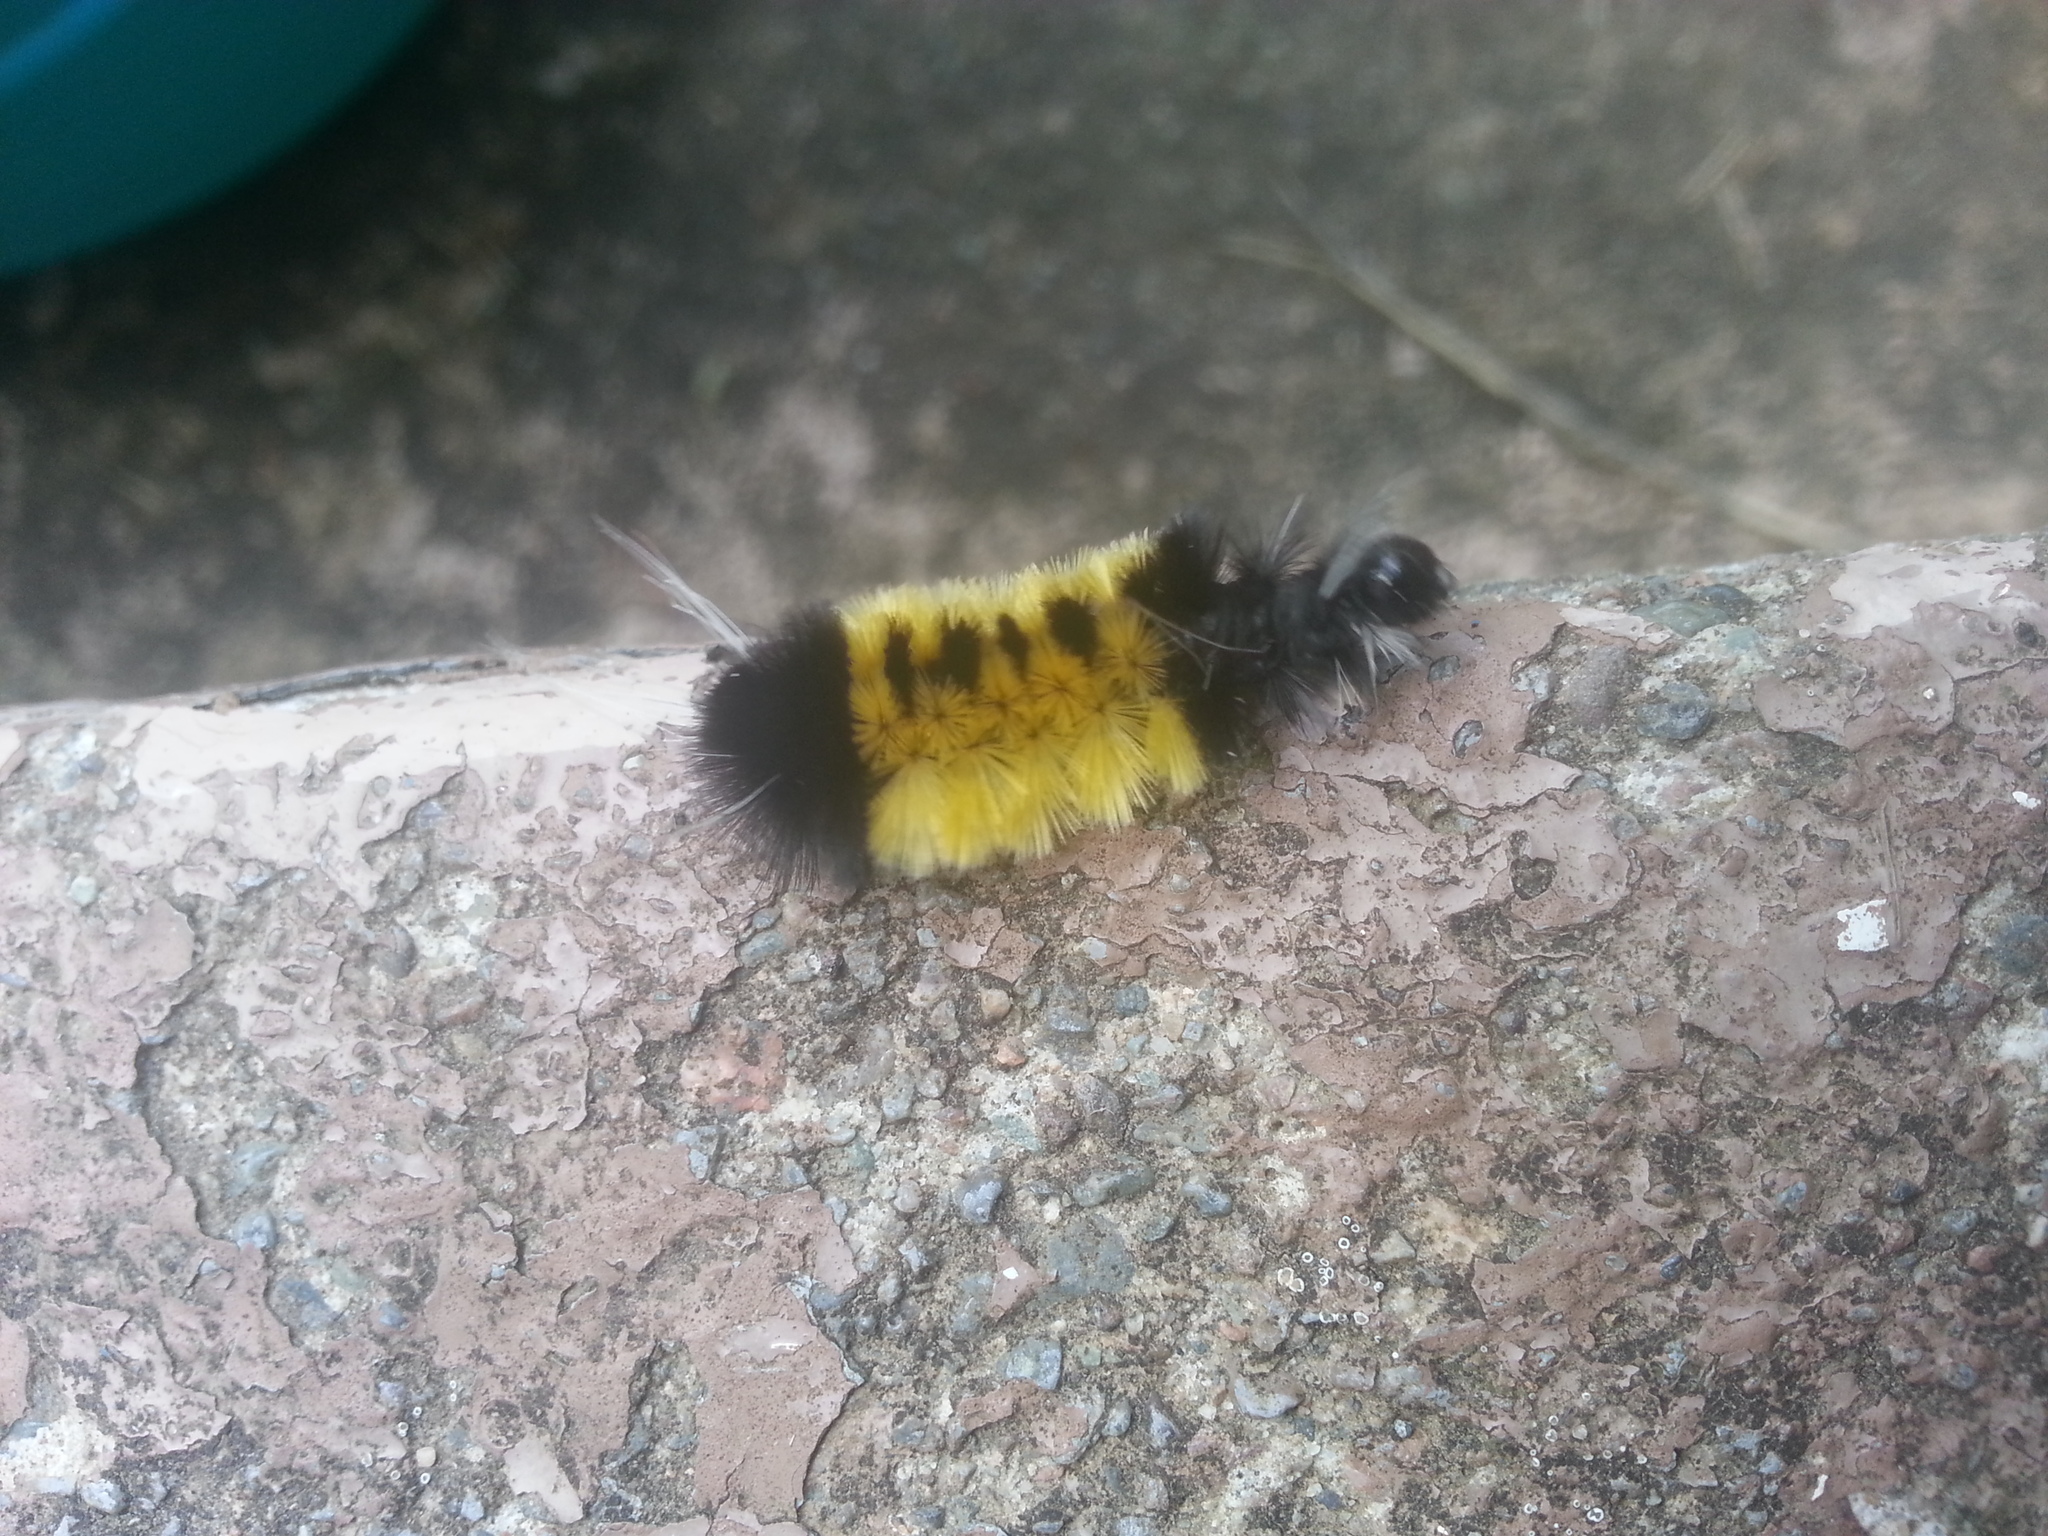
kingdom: Animalia
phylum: Arthropoda
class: Insecta
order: Lepidoptera
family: Erebidae
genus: Lophocampa
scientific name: Lophocampa maculata
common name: Spotted tussock moth
